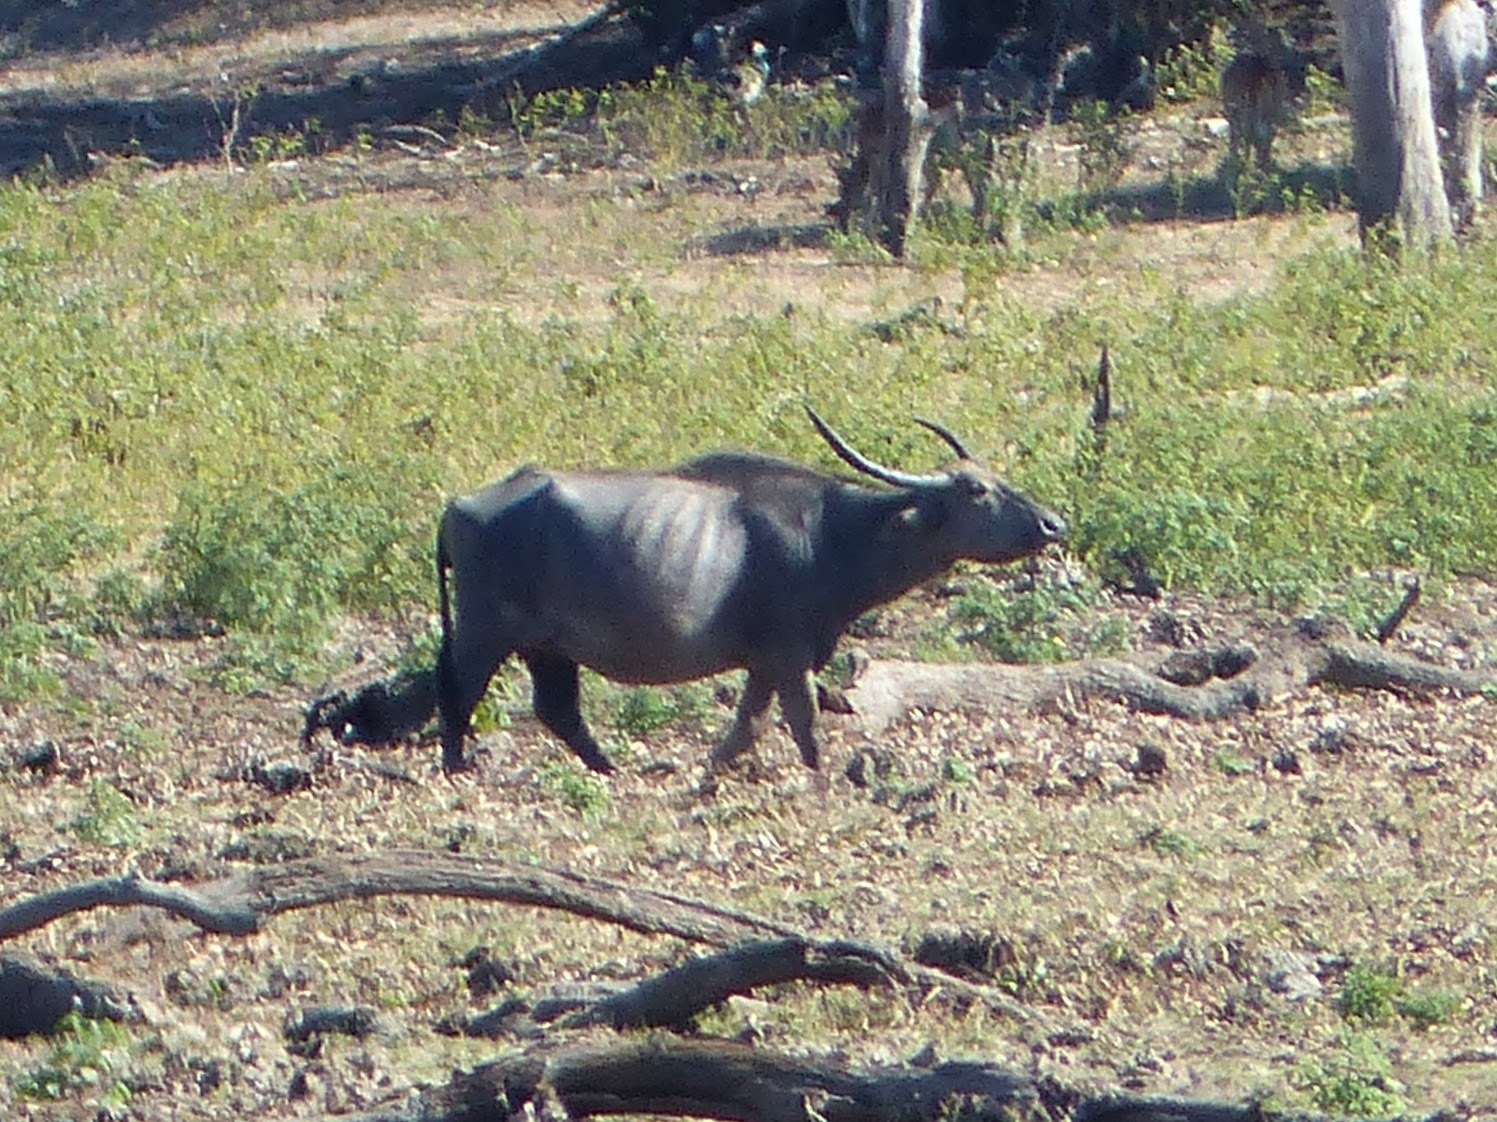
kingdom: Animalia
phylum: Chordata
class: Mammalia
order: Artiodactyla
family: Bovidae
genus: Bubalus
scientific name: Bubalus bubalis
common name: Water buffalo
